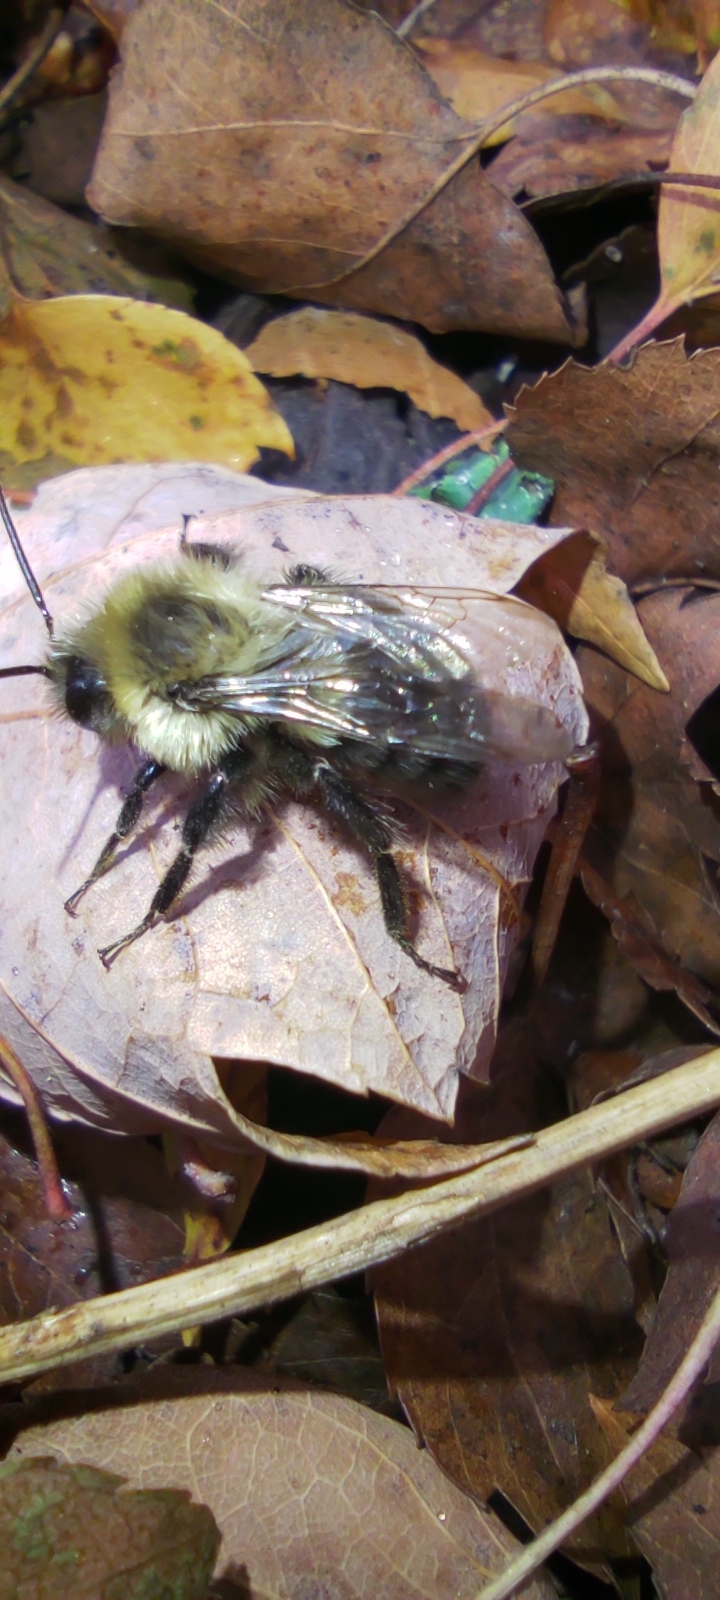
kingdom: Animalia
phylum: Arthropoda
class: Insecta
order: Hymenoptera
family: Apidae
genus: Bombus
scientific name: Bombus impatiens
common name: Common eastern bumble bee
